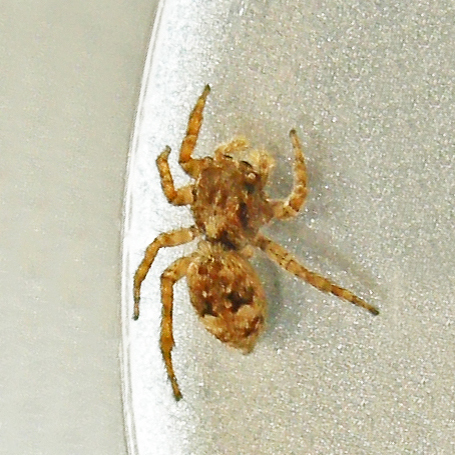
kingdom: Animalia
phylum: Arthropoda
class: Arachnida
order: Araneae
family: Salticidae
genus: Attulus
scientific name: Attulus fasciger
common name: Asiatic wall jumping spider
